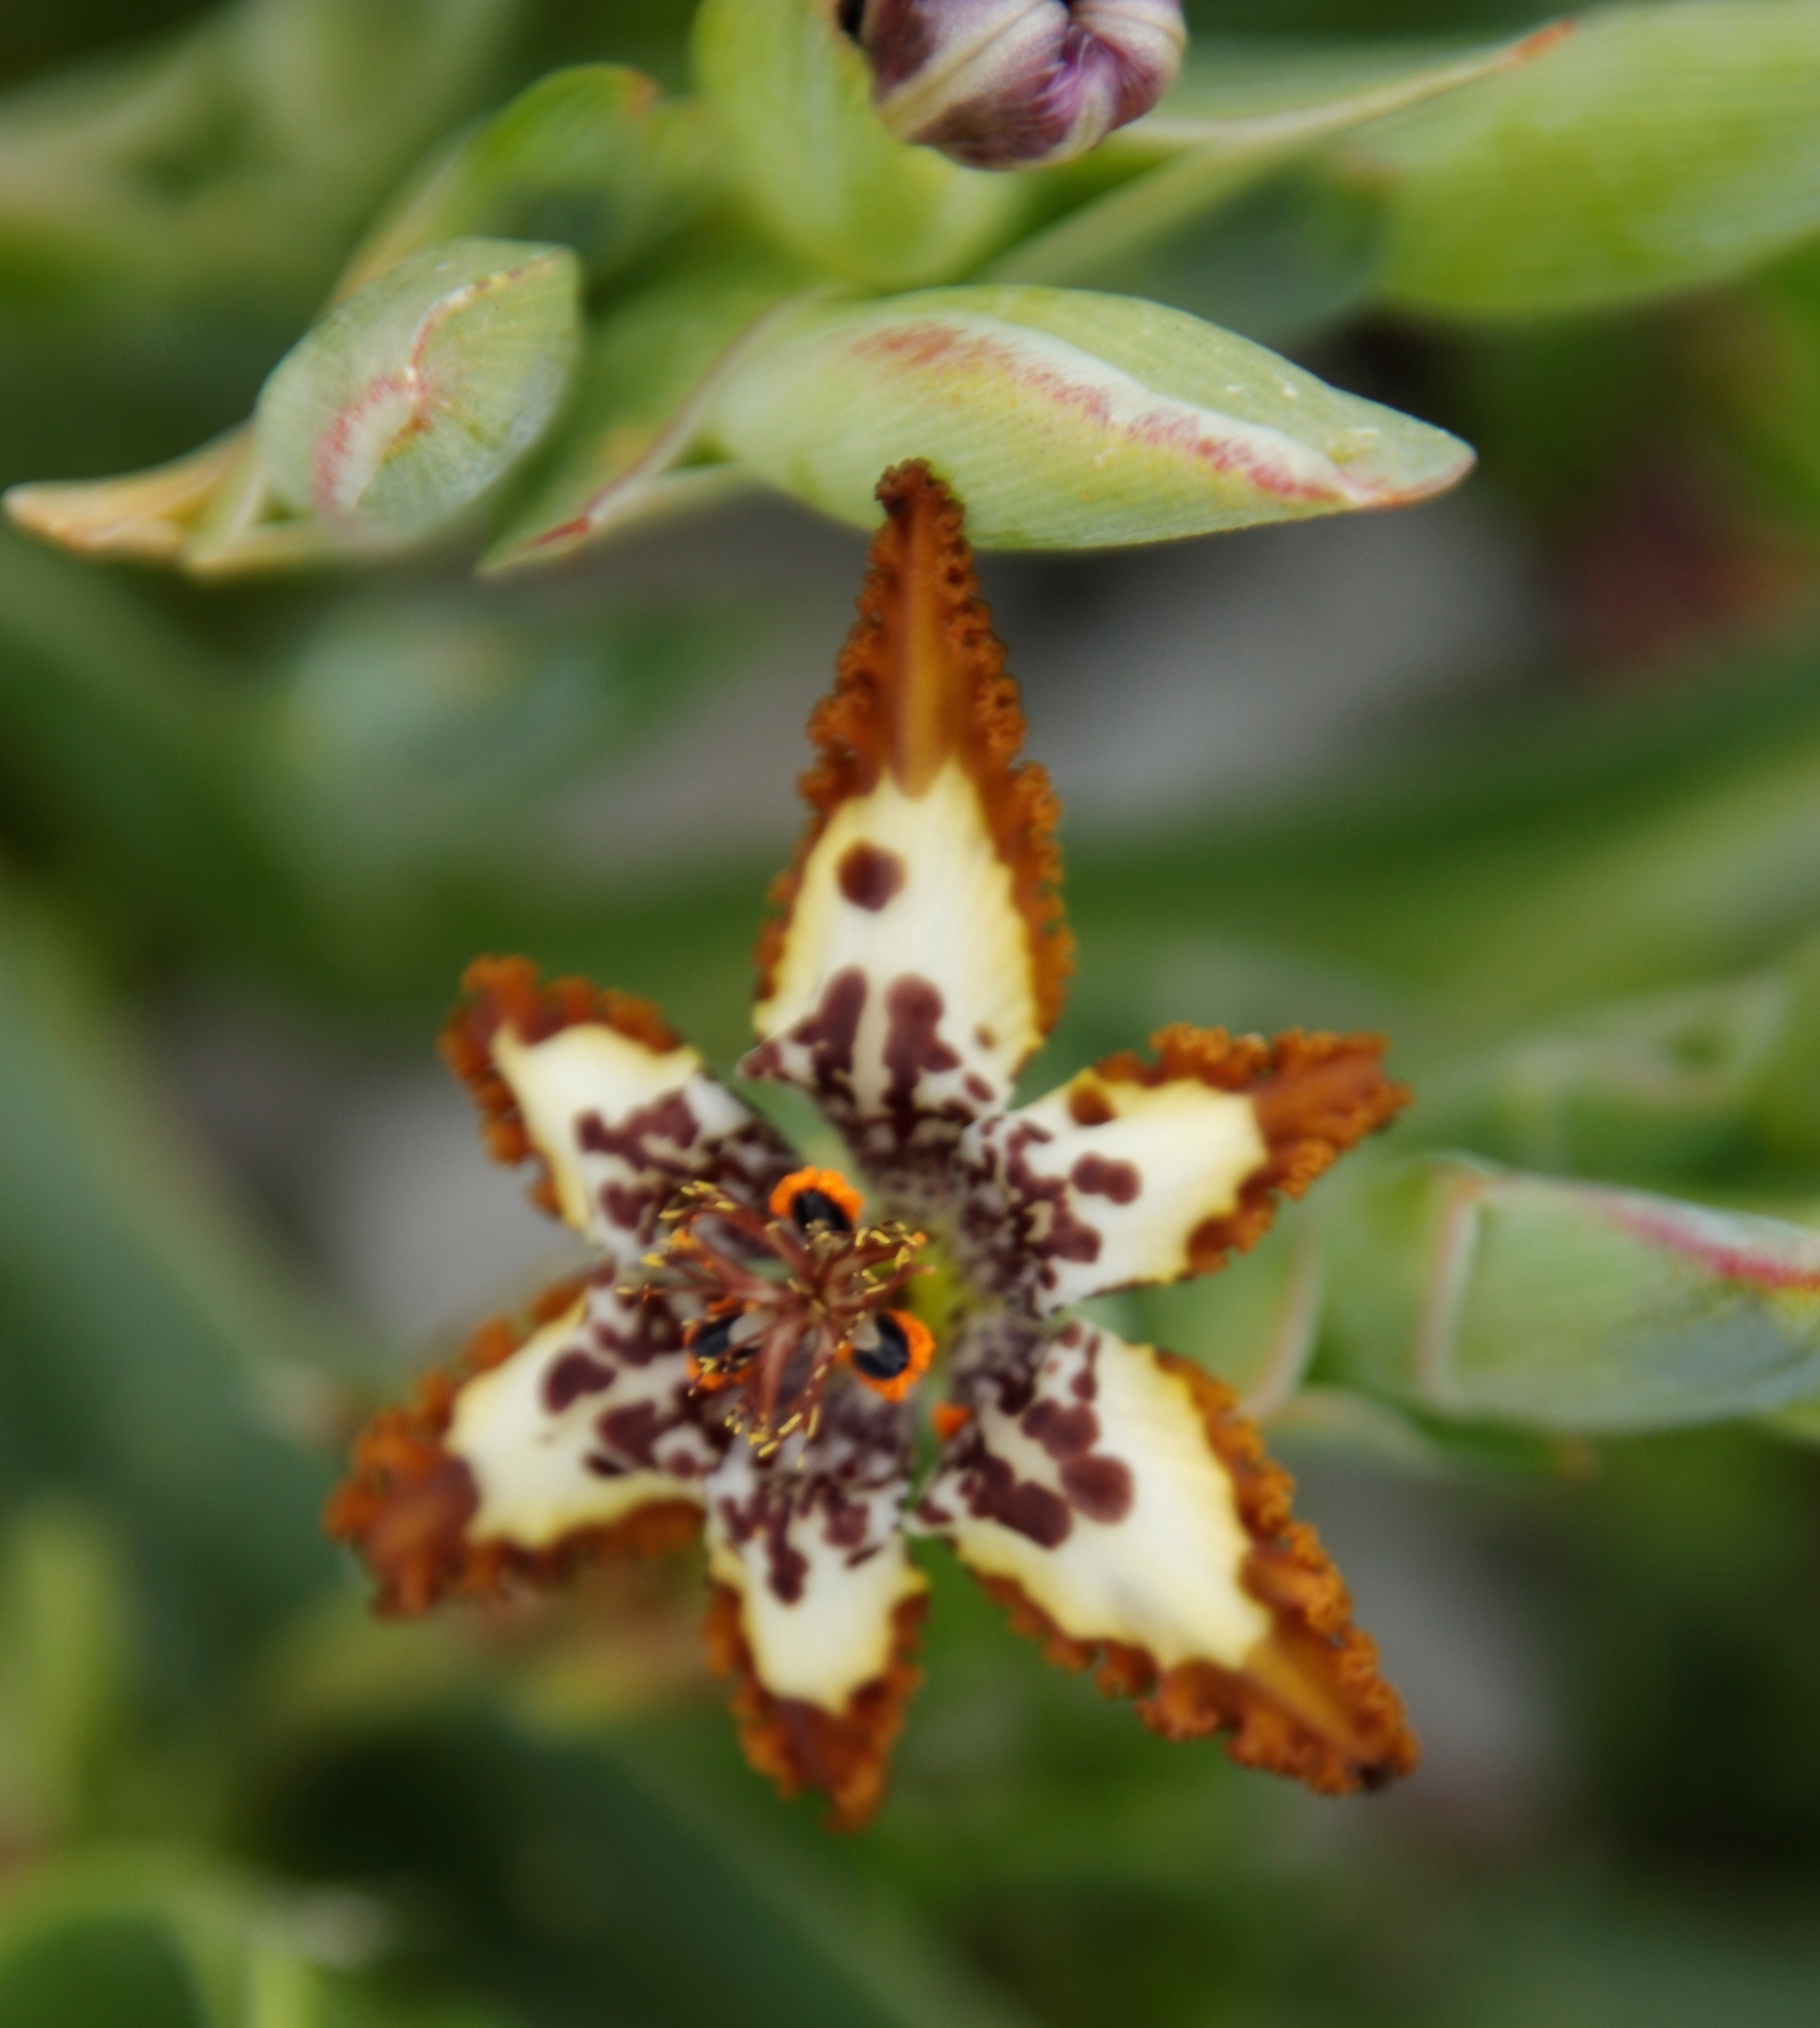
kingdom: Plantae
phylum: Tracheophyta
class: Liliopsida
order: Asparagales
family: Iridaceae
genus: Ferraria
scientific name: Ferraria crispa
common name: Black-flag
